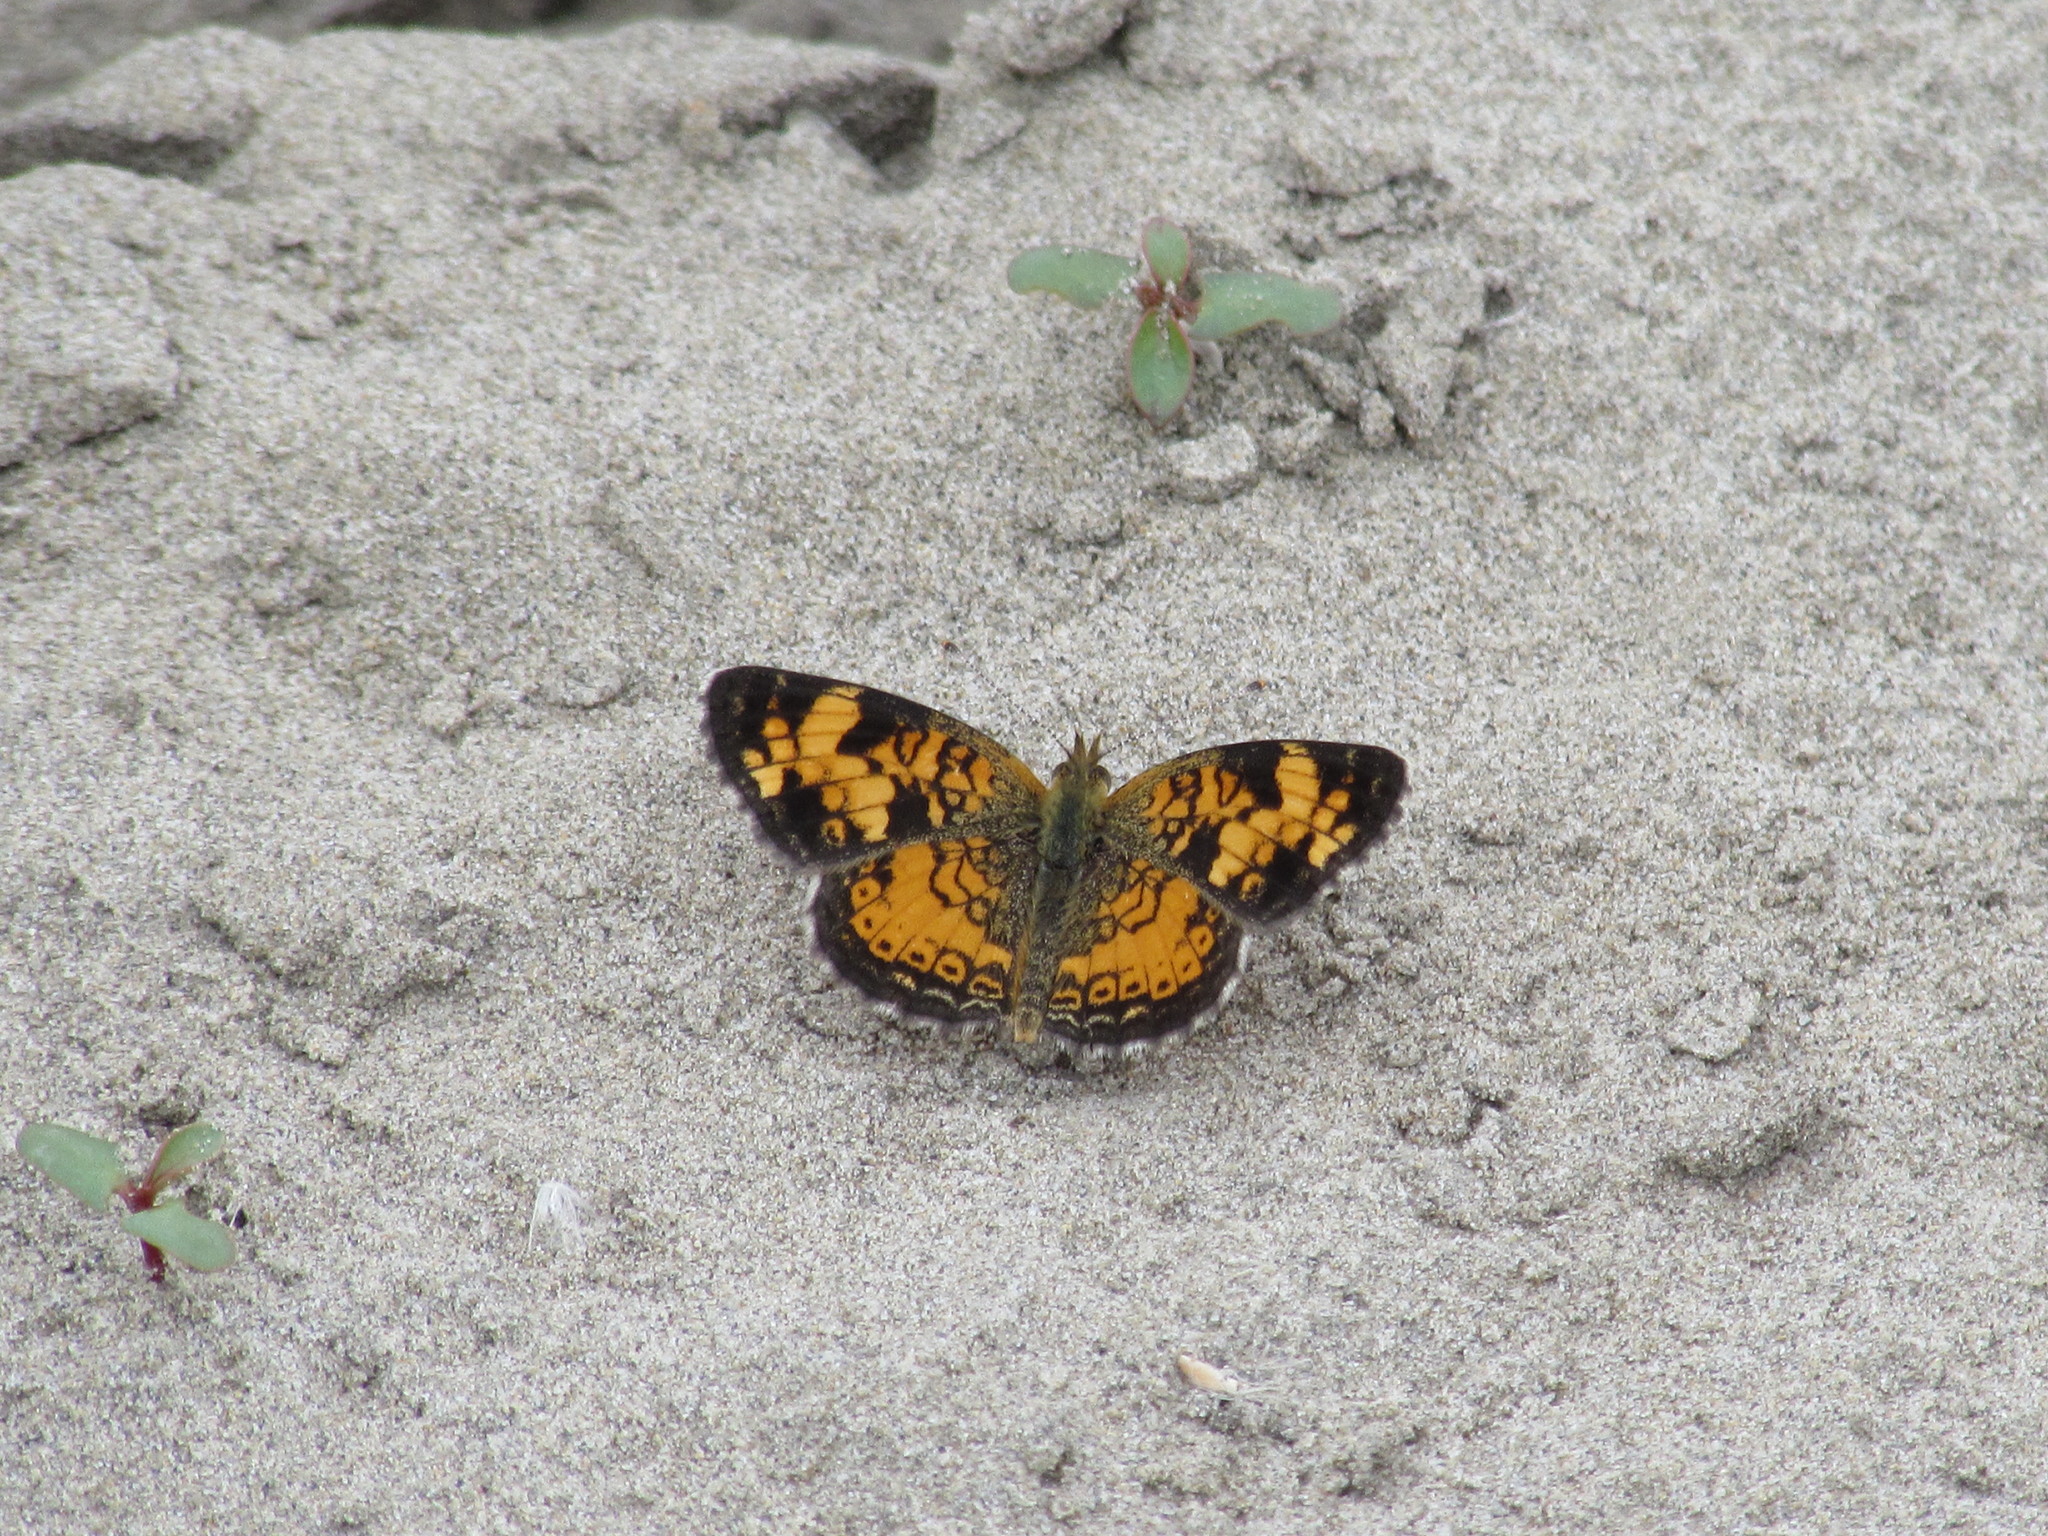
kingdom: Animalia
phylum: Arthropoda
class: Insecta
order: Lepidoptera
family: Nymphalidae
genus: Phyciodes
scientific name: Phyciodes tharos
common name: Pearl crescent
